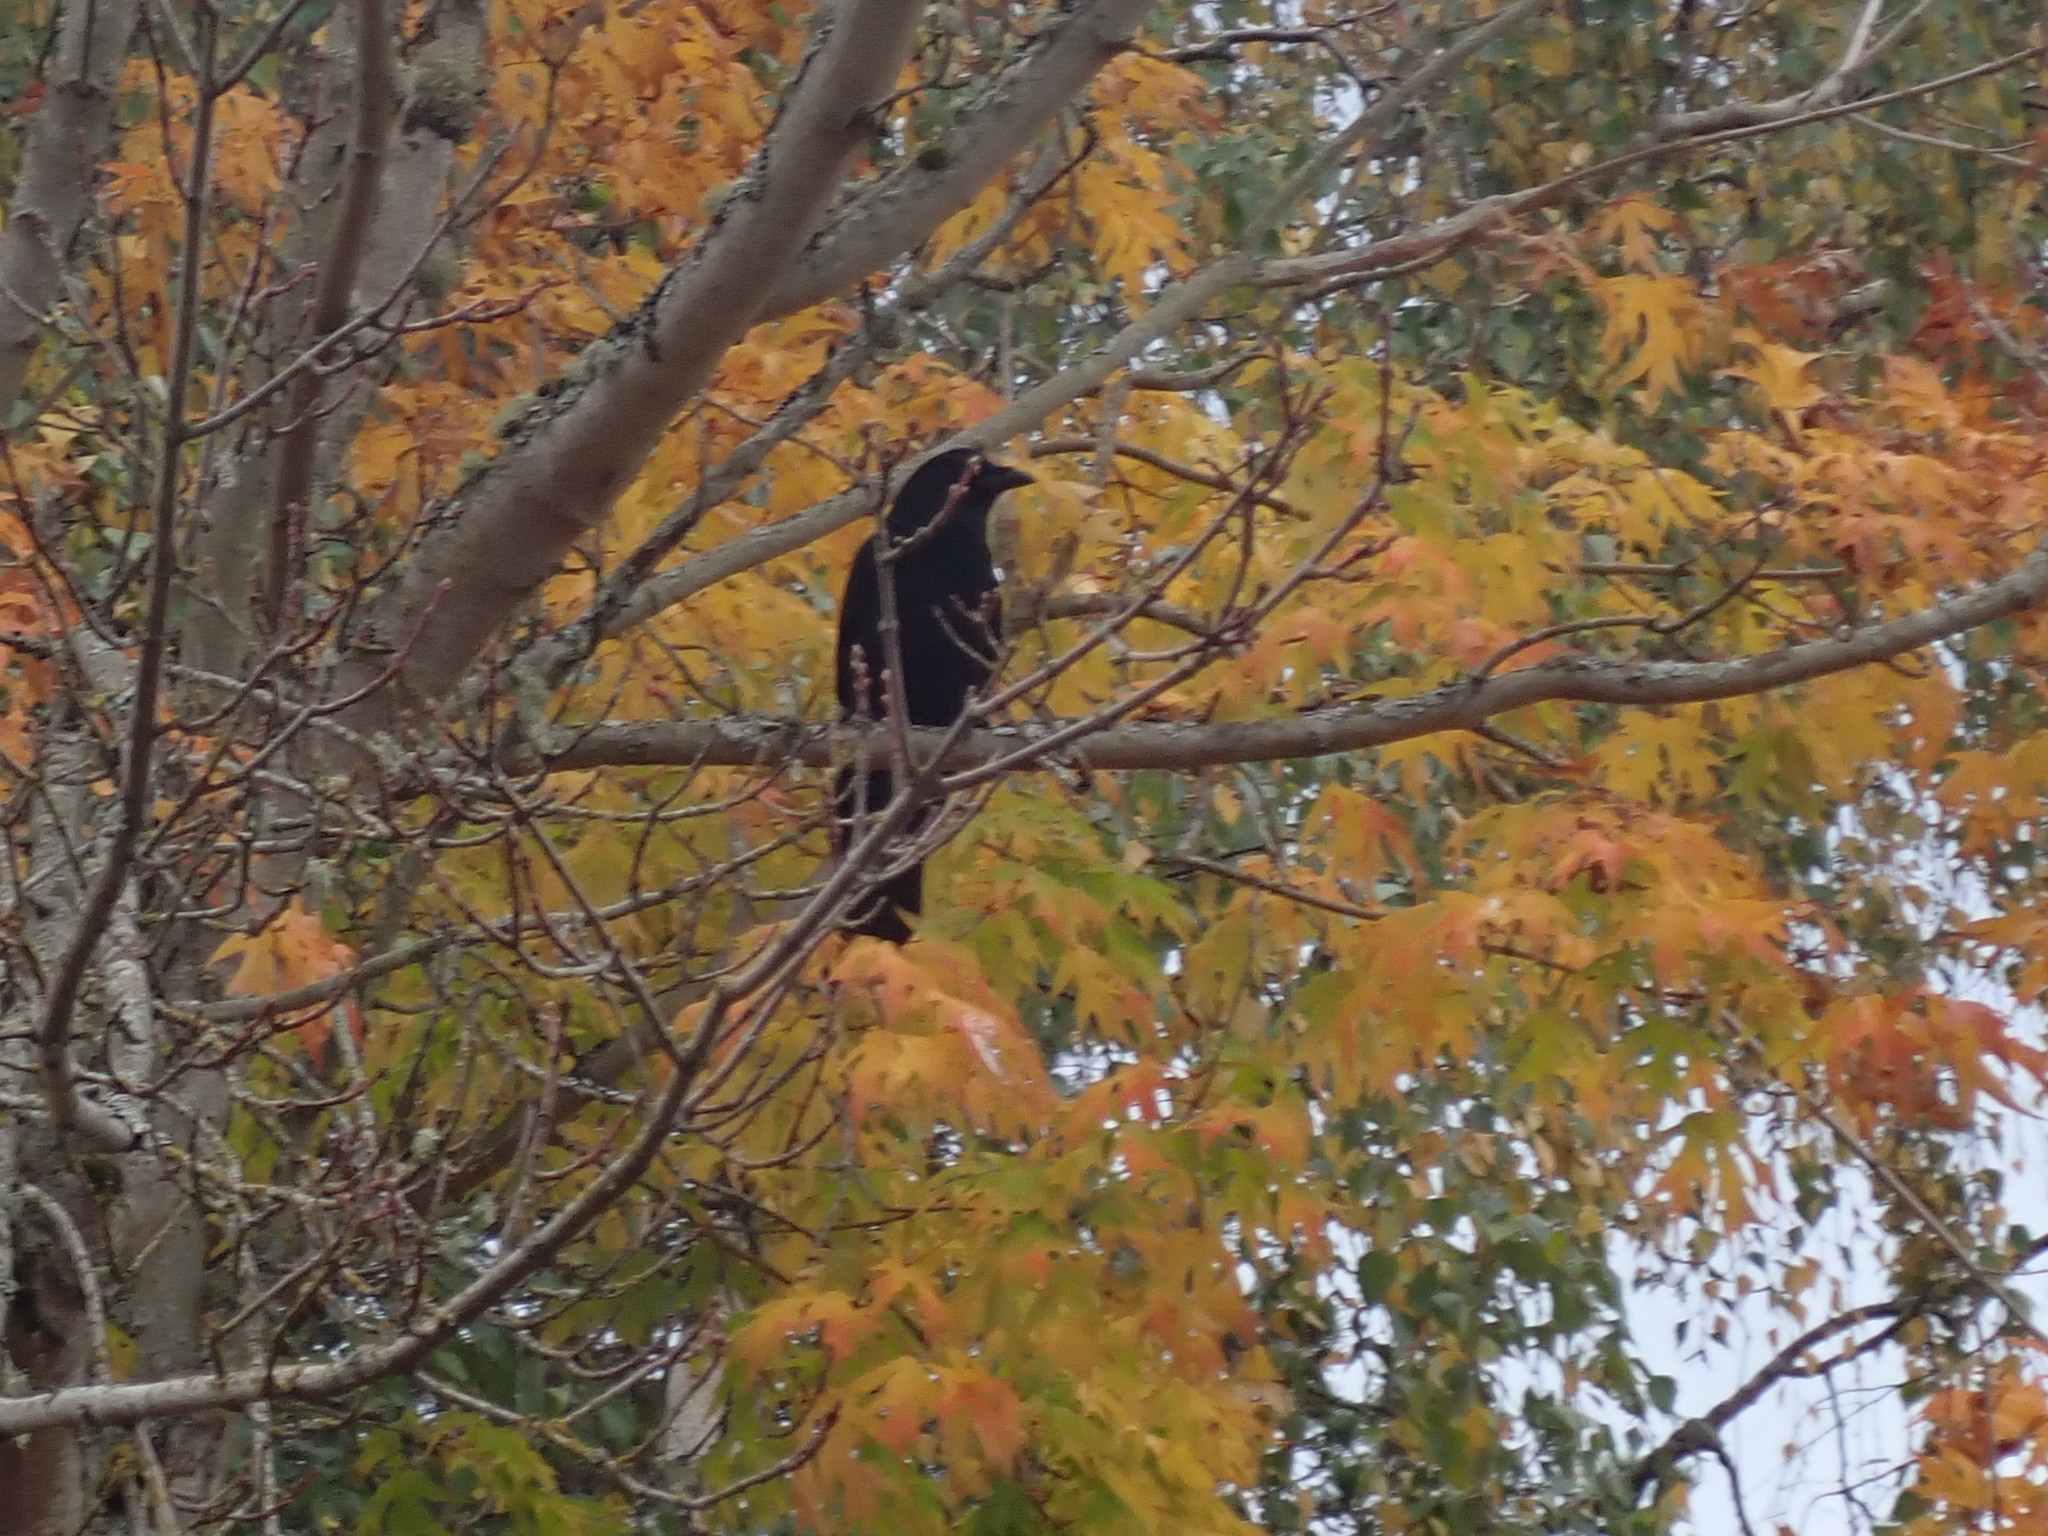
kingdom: Animalia
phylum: Chordata
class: Aves
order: Passeriformes
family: Corvidae
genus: Corvus
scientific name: Corvus brachyrhynchos
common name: American crow
